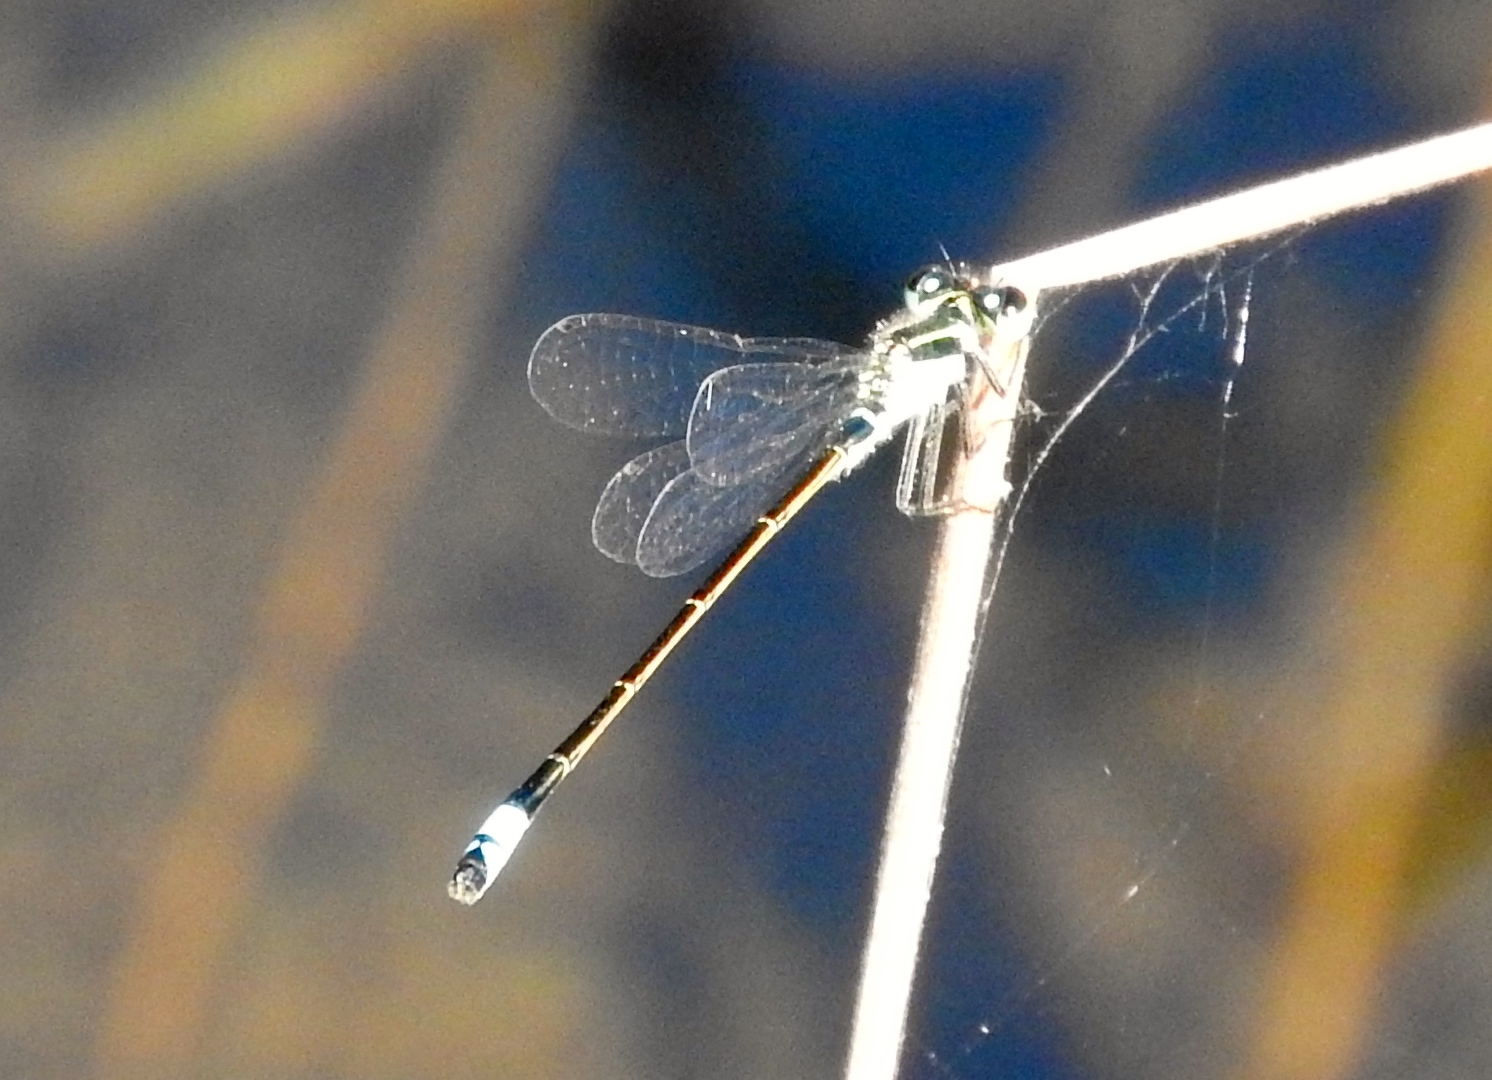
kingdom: Animalia
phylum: Arthropoda
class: Insecta
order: Odonata
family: Coenagrionidae
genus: Ischnura
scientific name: Ischnura ramburii
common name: Rambur's forktail
